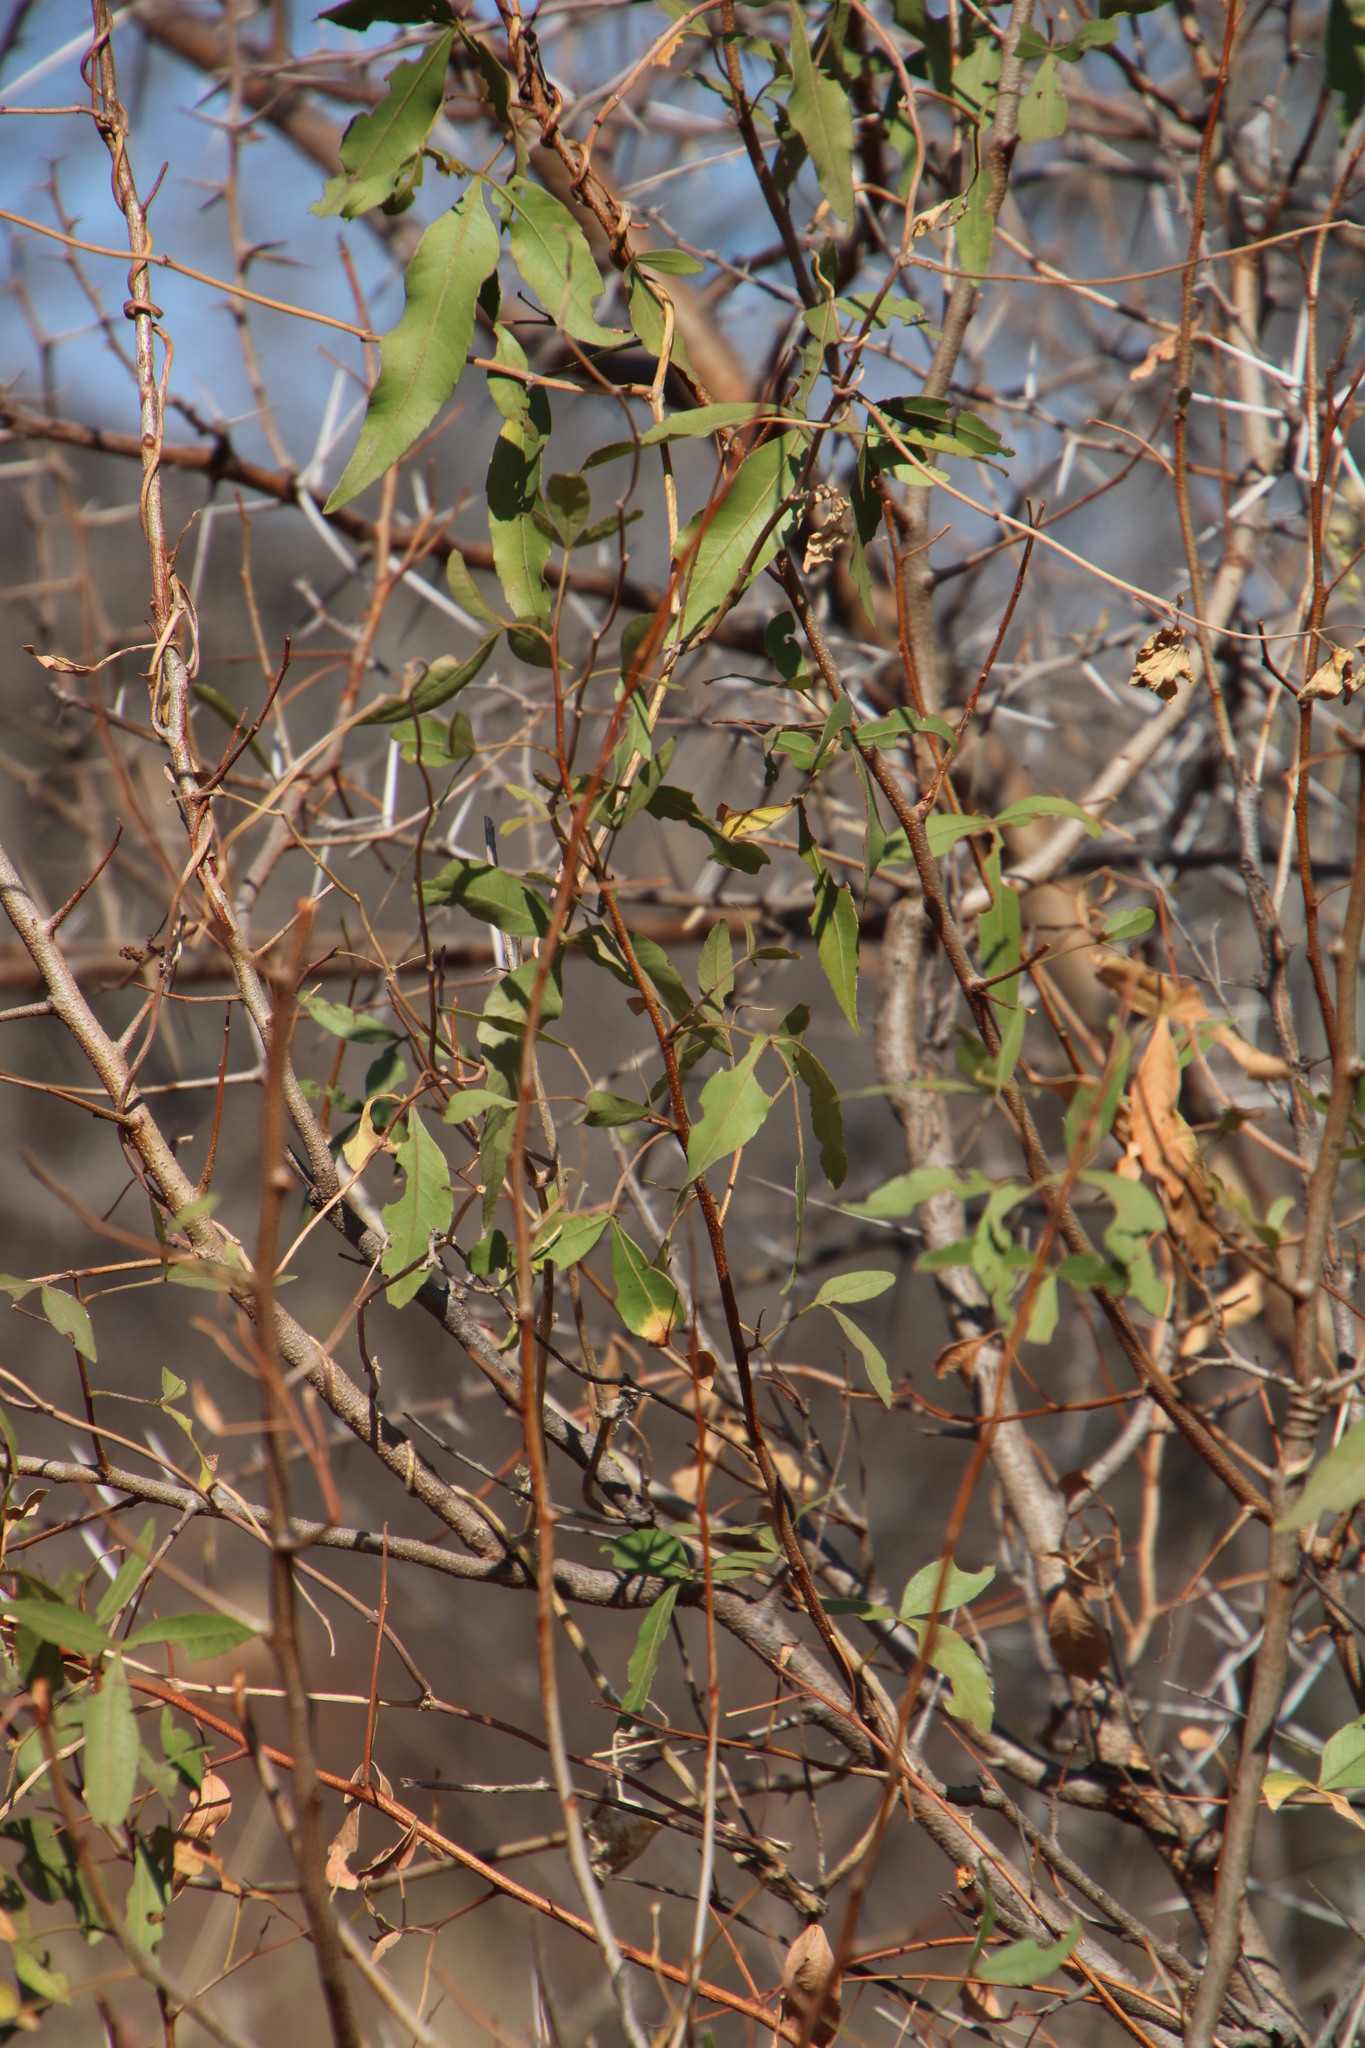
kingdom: Plantae
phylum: Tracheophyta
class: Magnoliopsida
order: Sapindales
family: Anacardiaceae
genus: Searsia
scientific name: Searsia leptodictya
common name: Mountain karee
